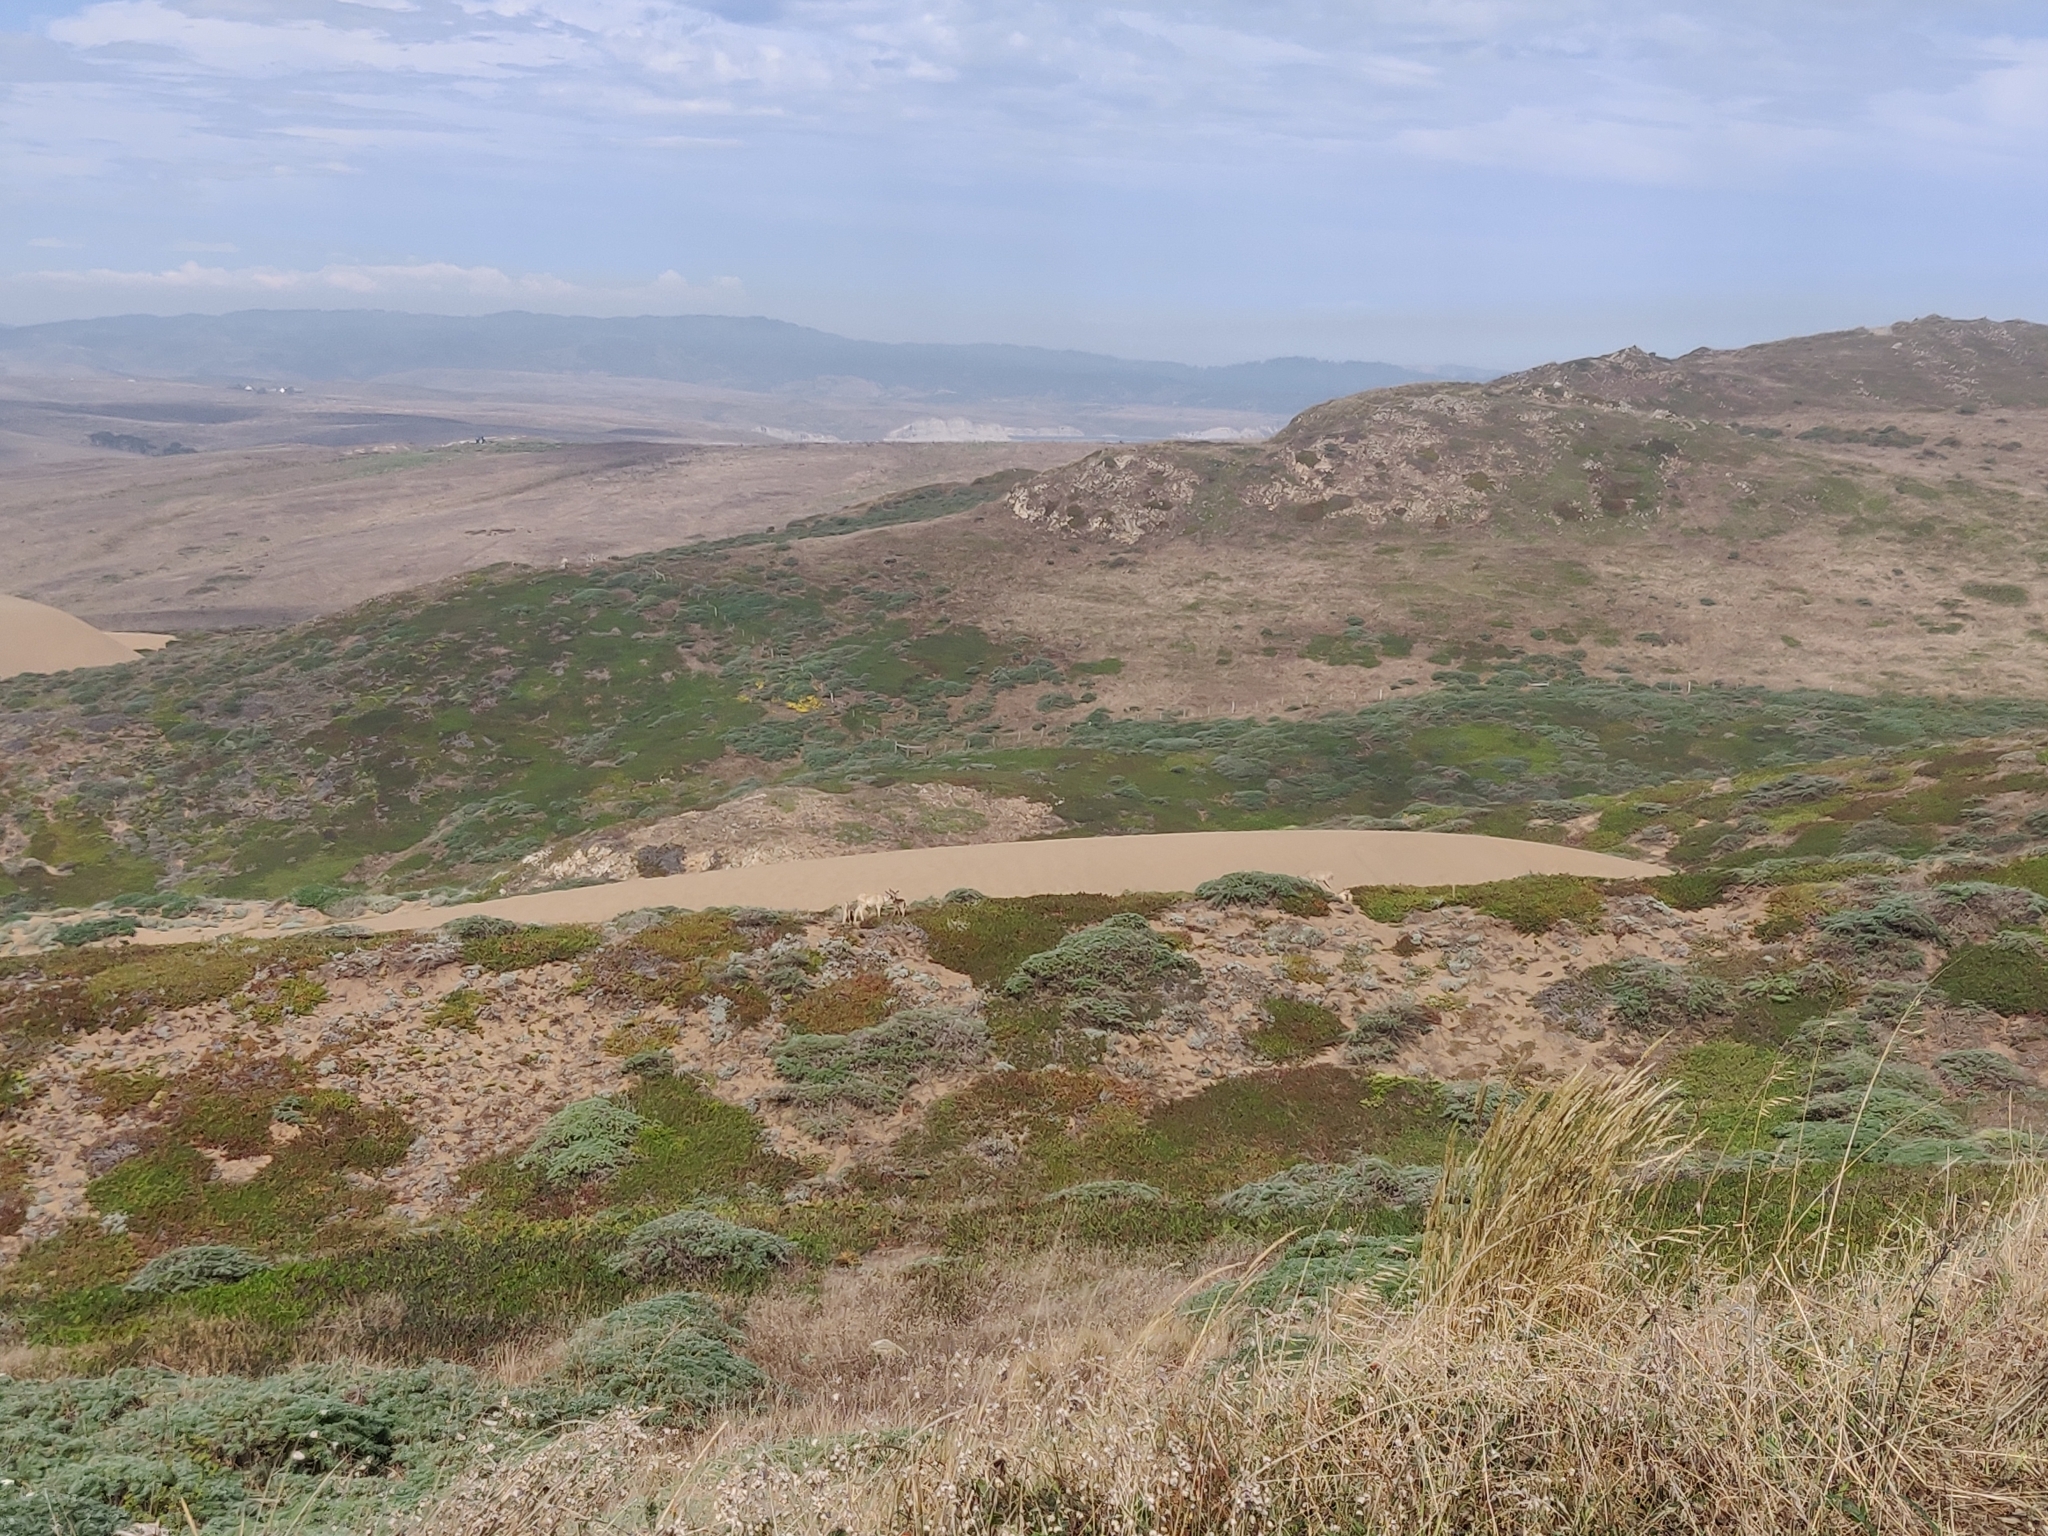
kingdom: Animalia
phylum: Chordata
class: Mammalia
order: Artiodactyla
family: Cervidae
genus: Odocoileus
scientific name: Odocoileus hemionus
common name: Mule deer
